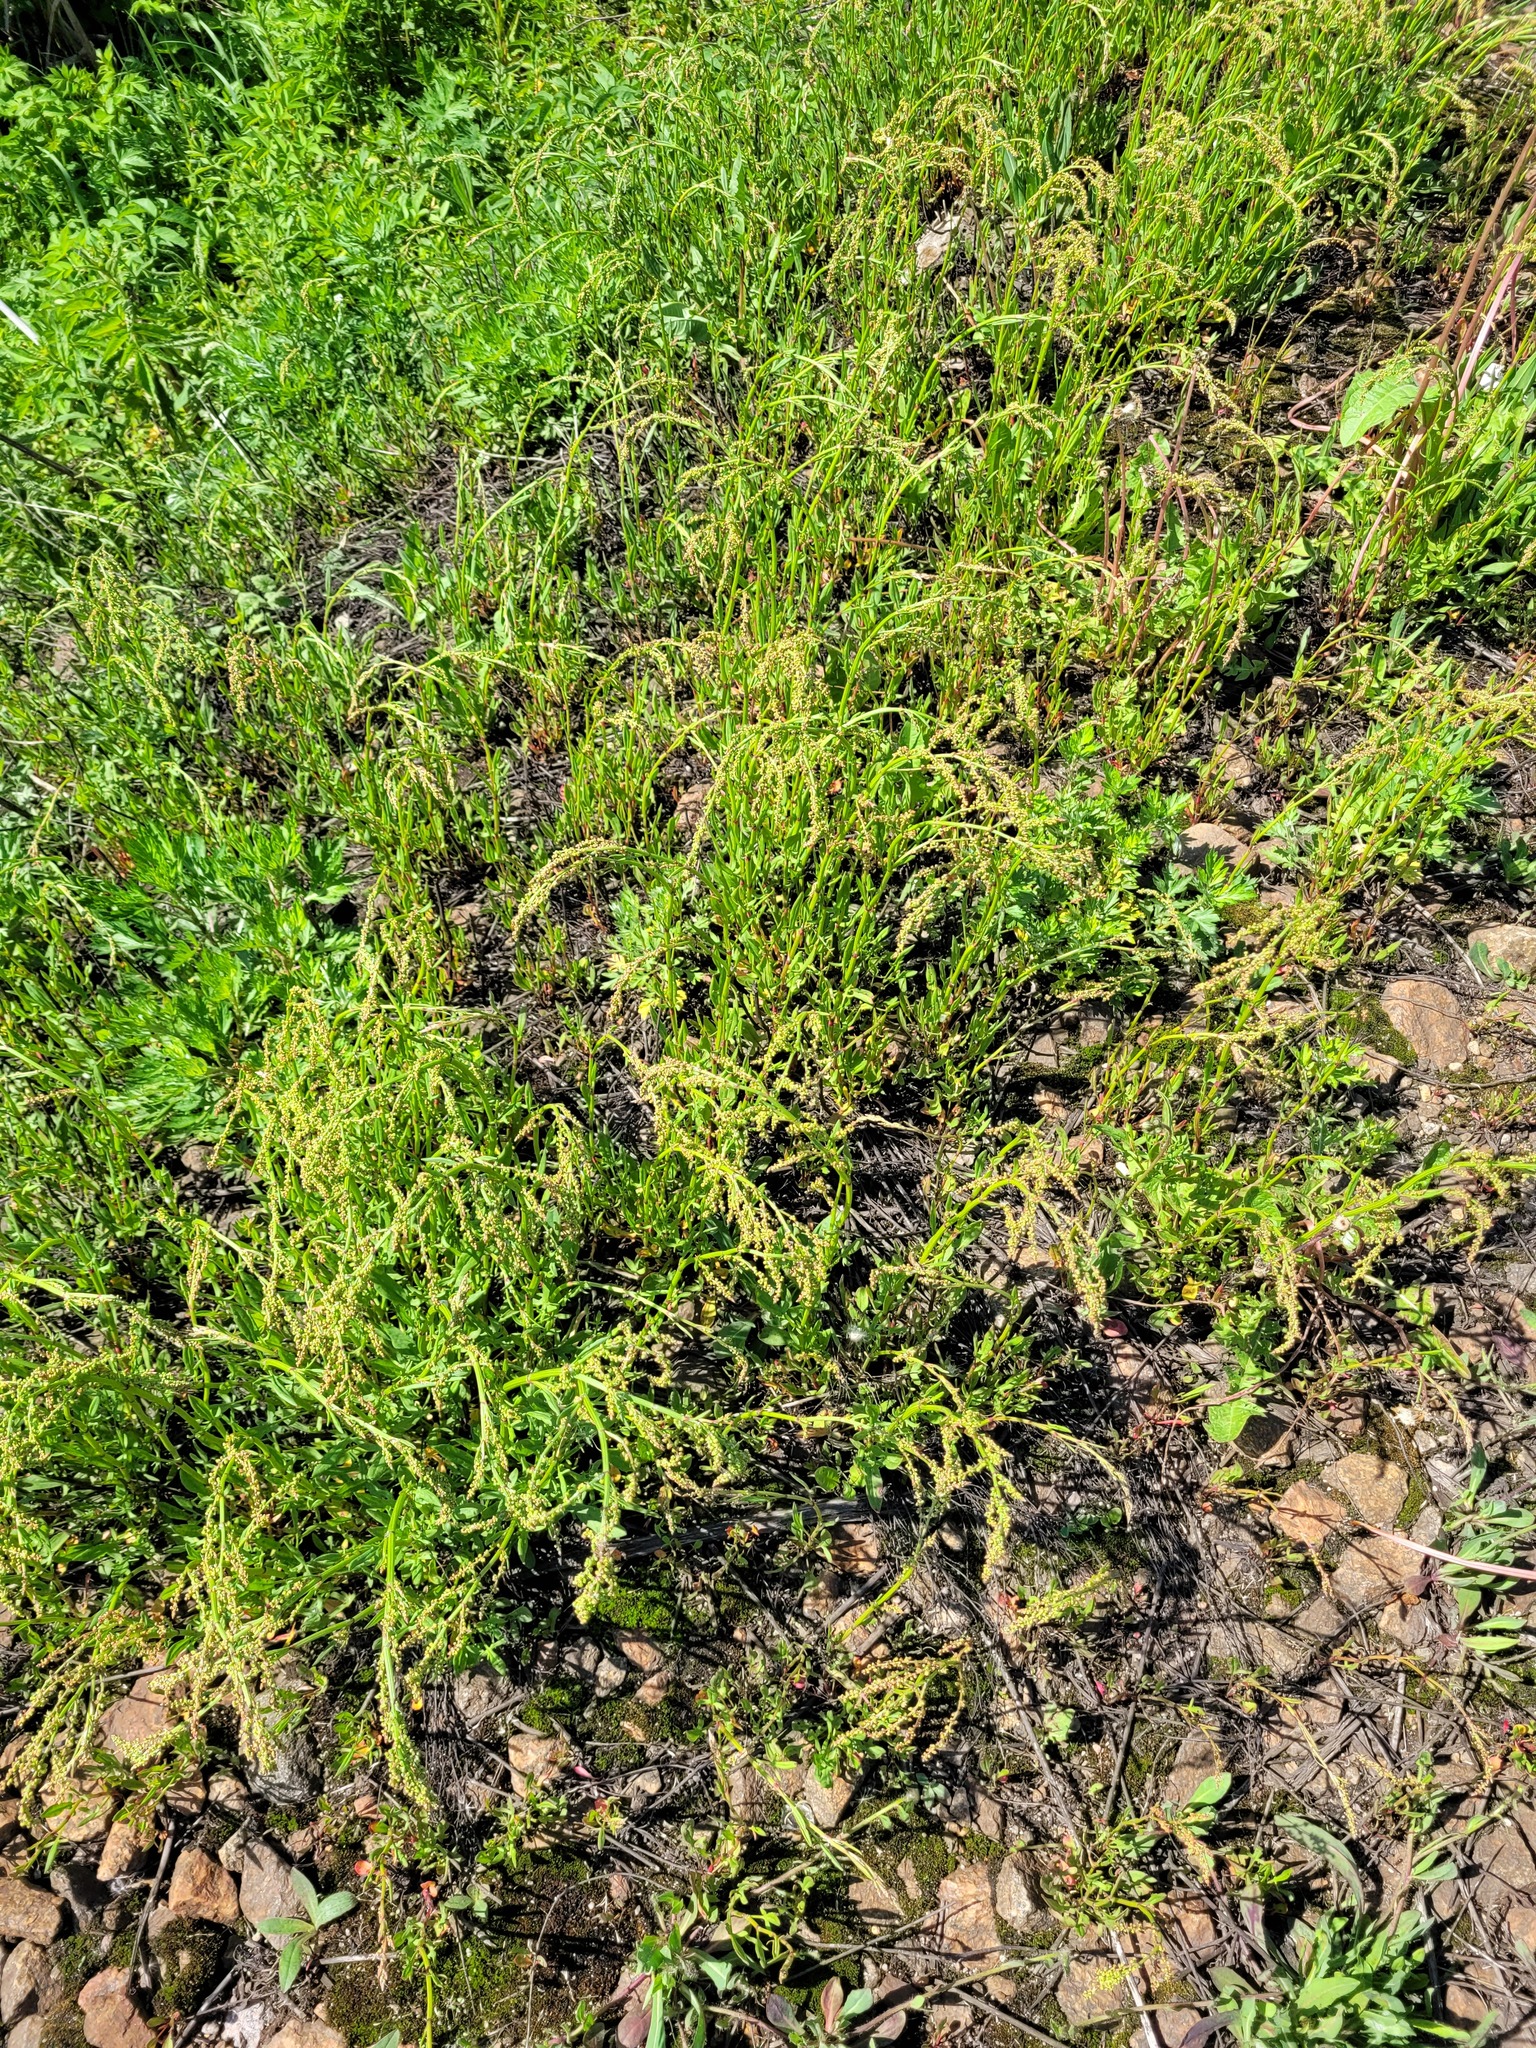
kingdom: Plantae
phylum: Tracheophyta
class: Magnoliopsida
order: Caryophyllales
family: Polygonaceae
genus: Rumex
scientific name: Rumex acetosella
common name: Common sheep sorrel
